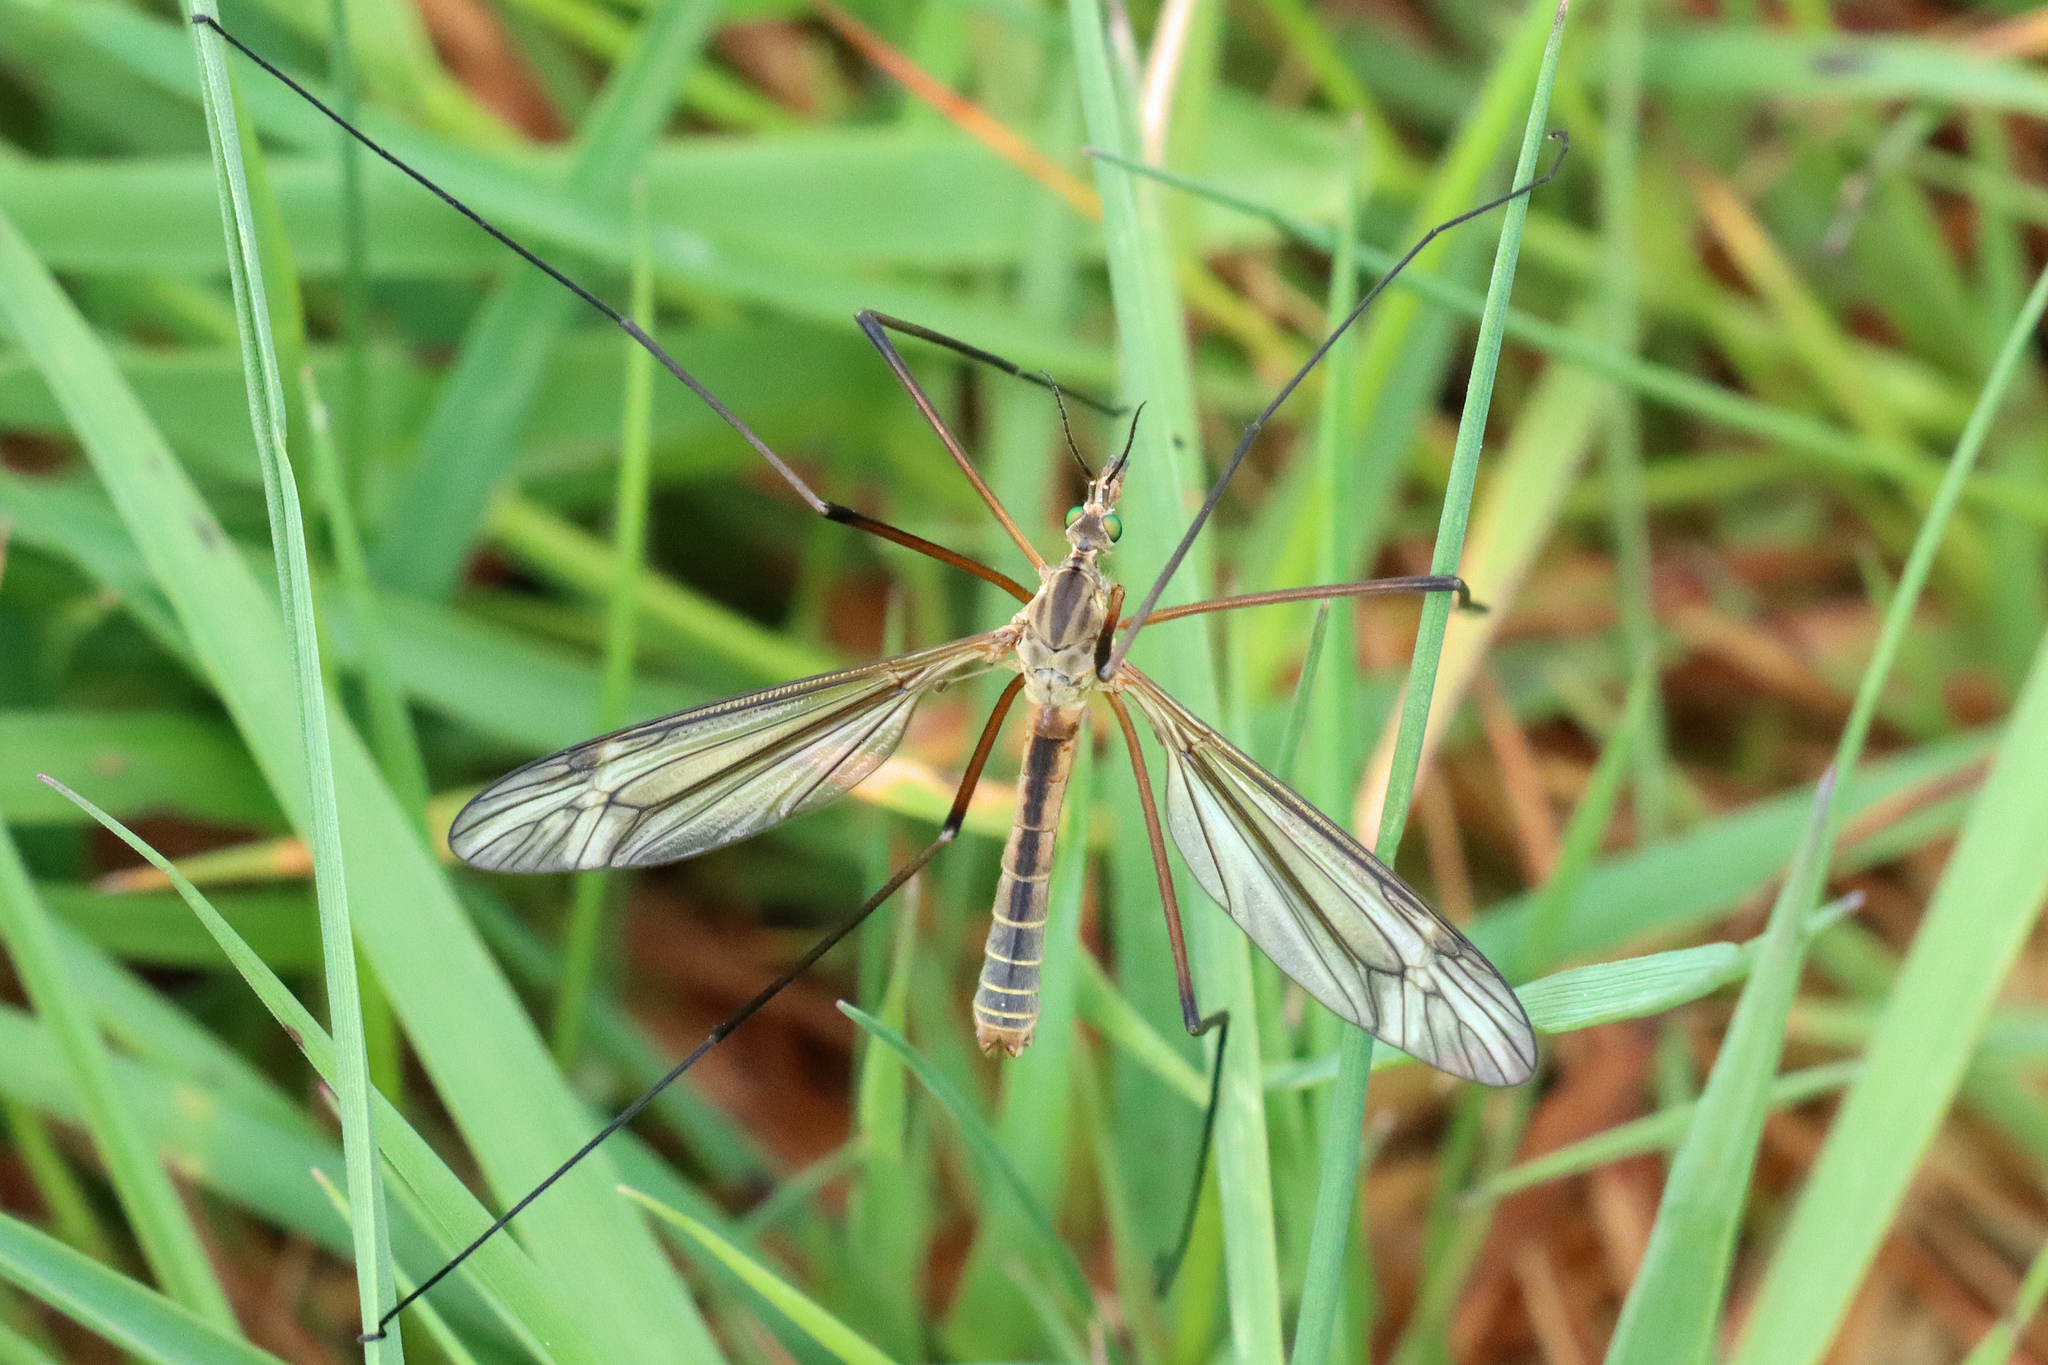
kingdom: Animalia
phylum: Arthropoda
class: Insecta
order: Diptera
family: Tipulidae
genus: Tipula
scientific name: Tipula vernalis
